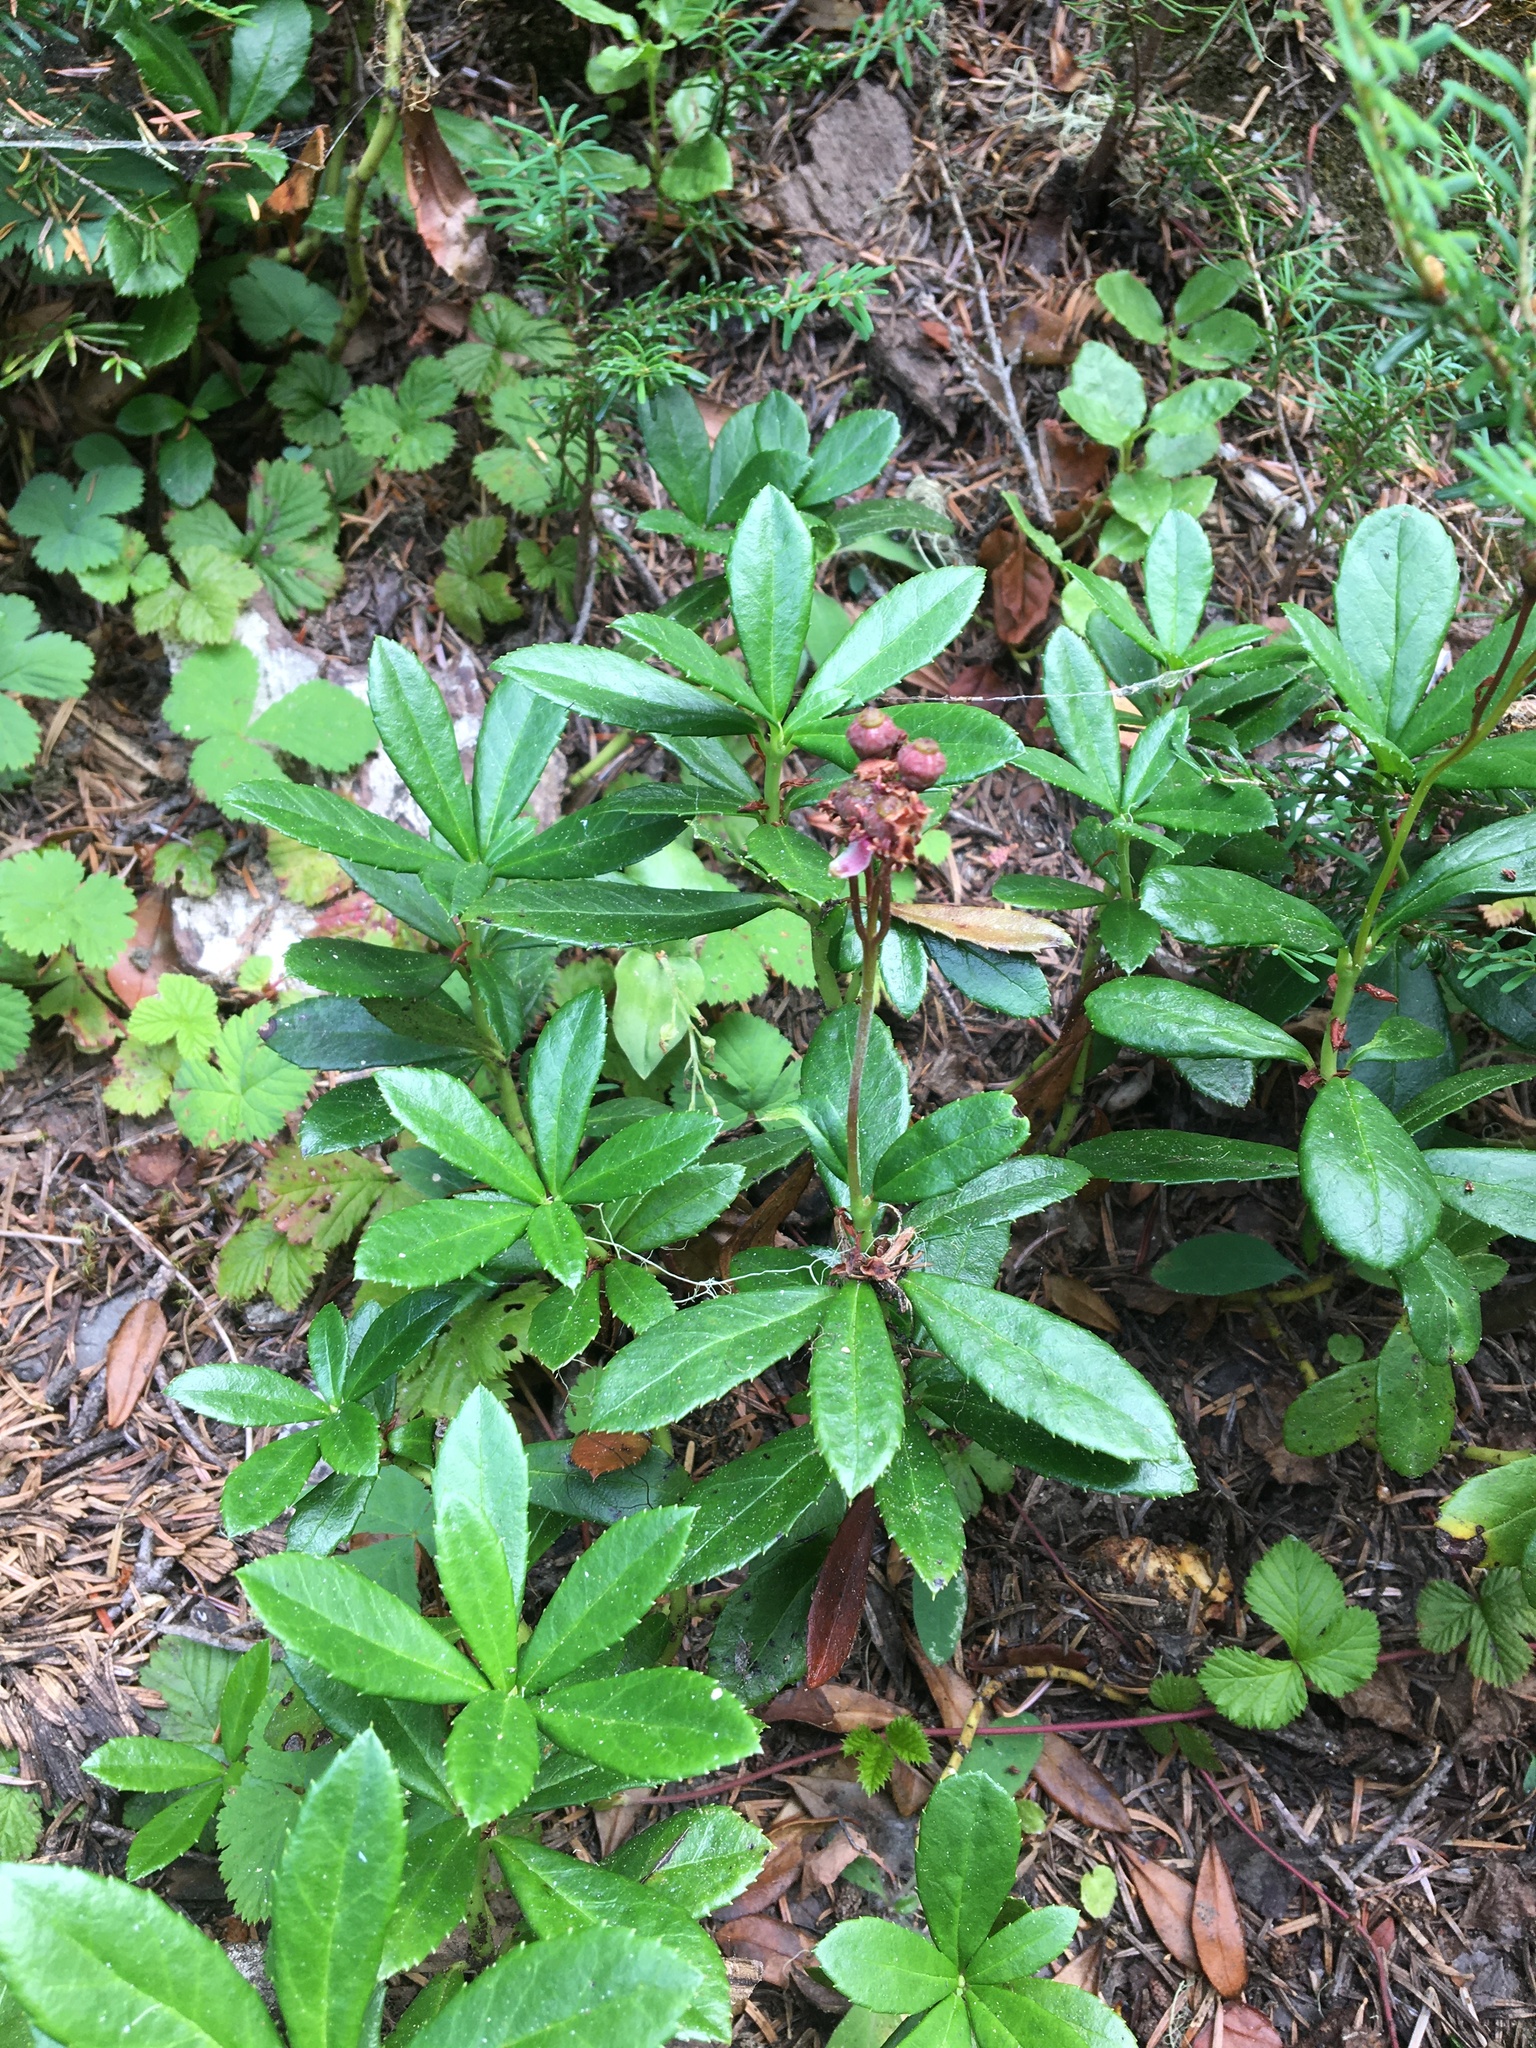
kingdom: Plantae
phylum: Tracheophyta
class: Magnoliopsida
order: Ericales
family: Ericaceae
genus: Chimaphila
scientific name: Chimaphila umbellata
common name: Pipsissewa
